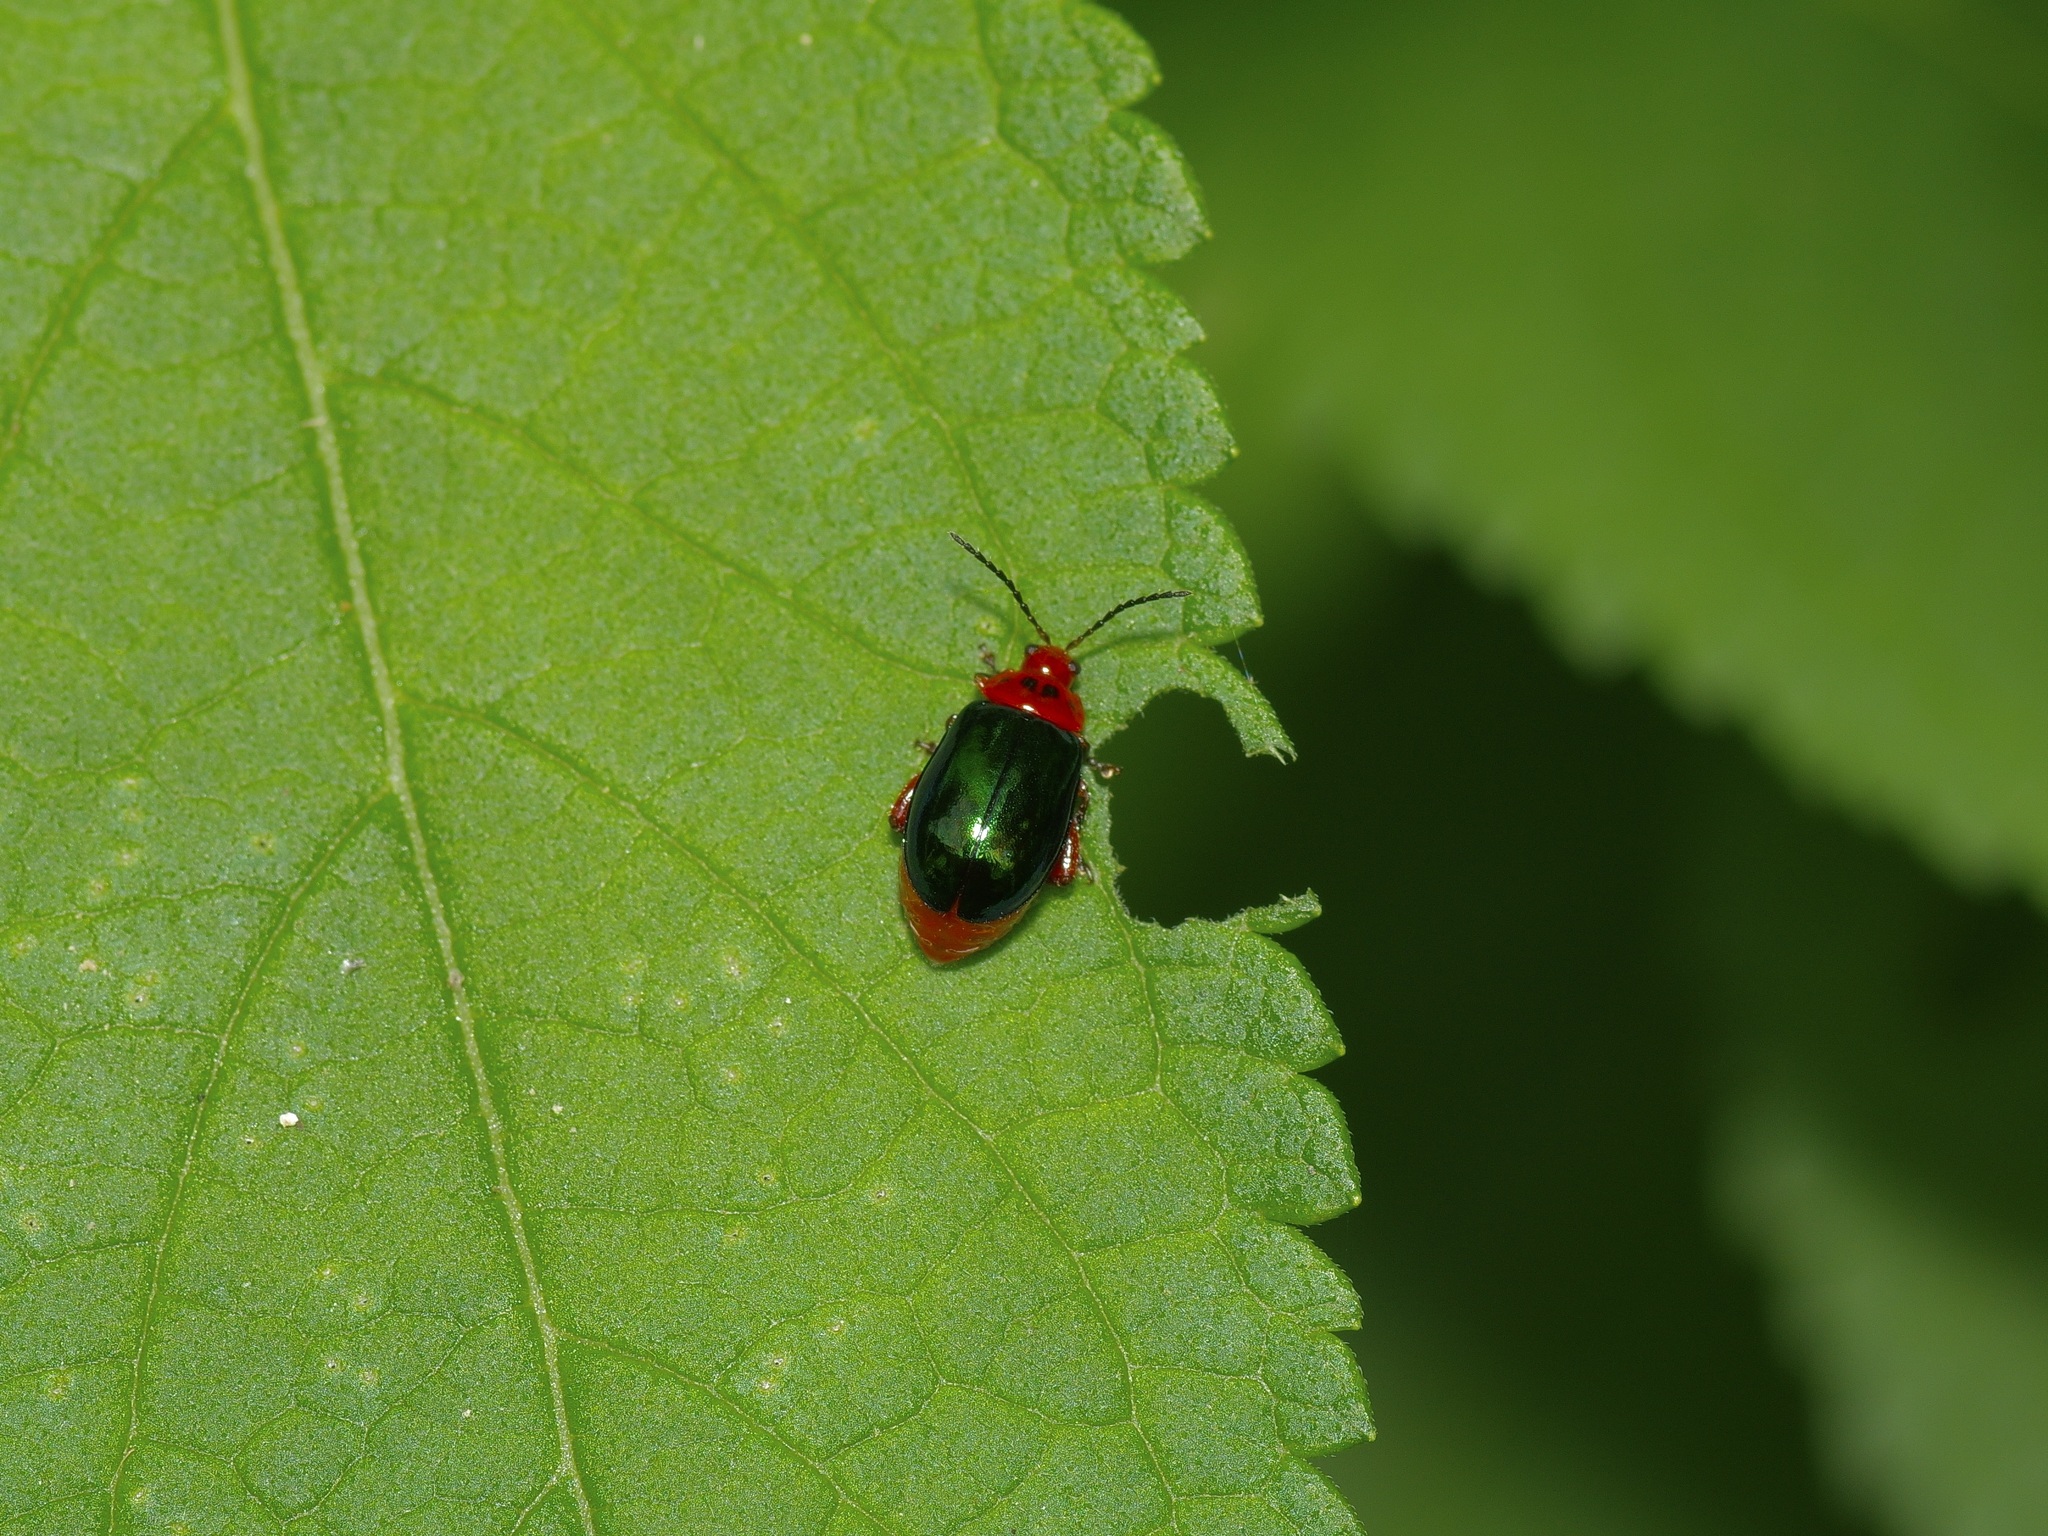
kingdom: Animalia
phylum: Arthropoda
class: Insecta
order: Coleoptera
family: Chrysomelidae
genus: Kuschelina
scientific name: Kuschelina gibbitarsa
